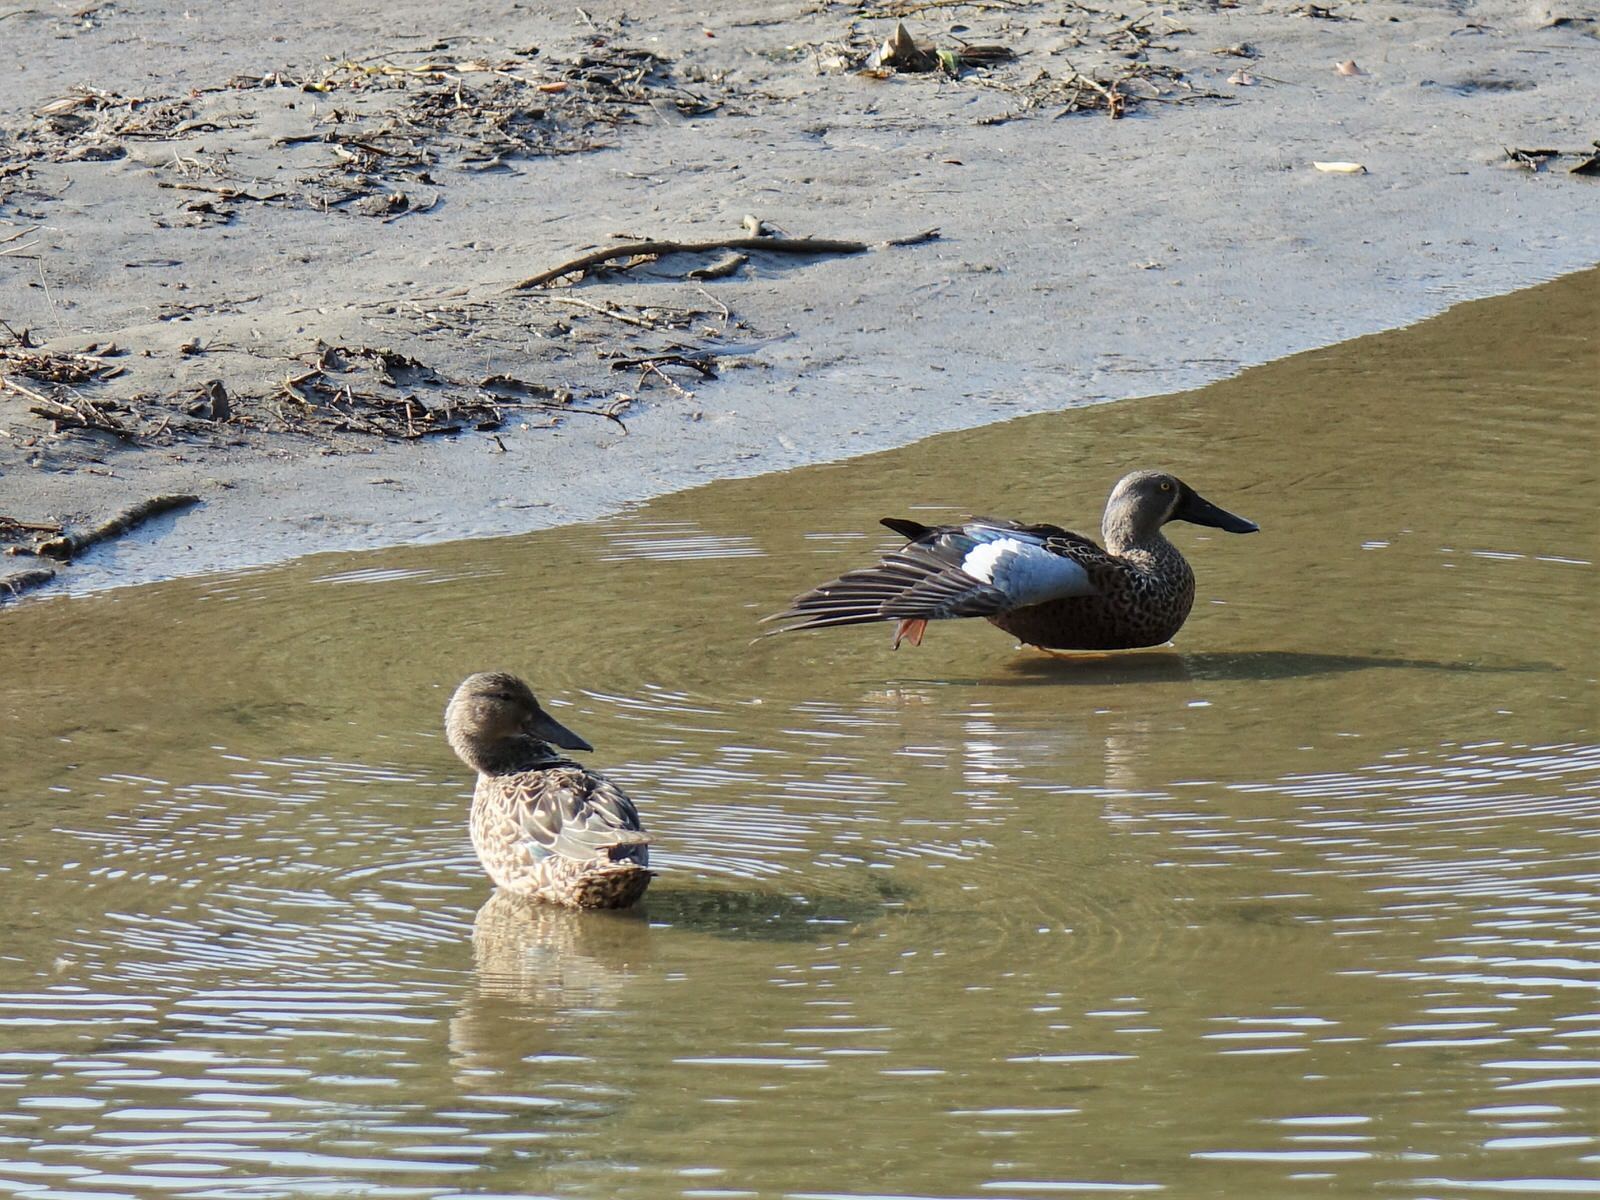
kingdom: Animalia
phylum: Chordata
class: Aves
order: Anseriformes
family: Anatidae
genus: Spatula
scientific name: Spatula rhynchotis
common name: Australian shoveler
